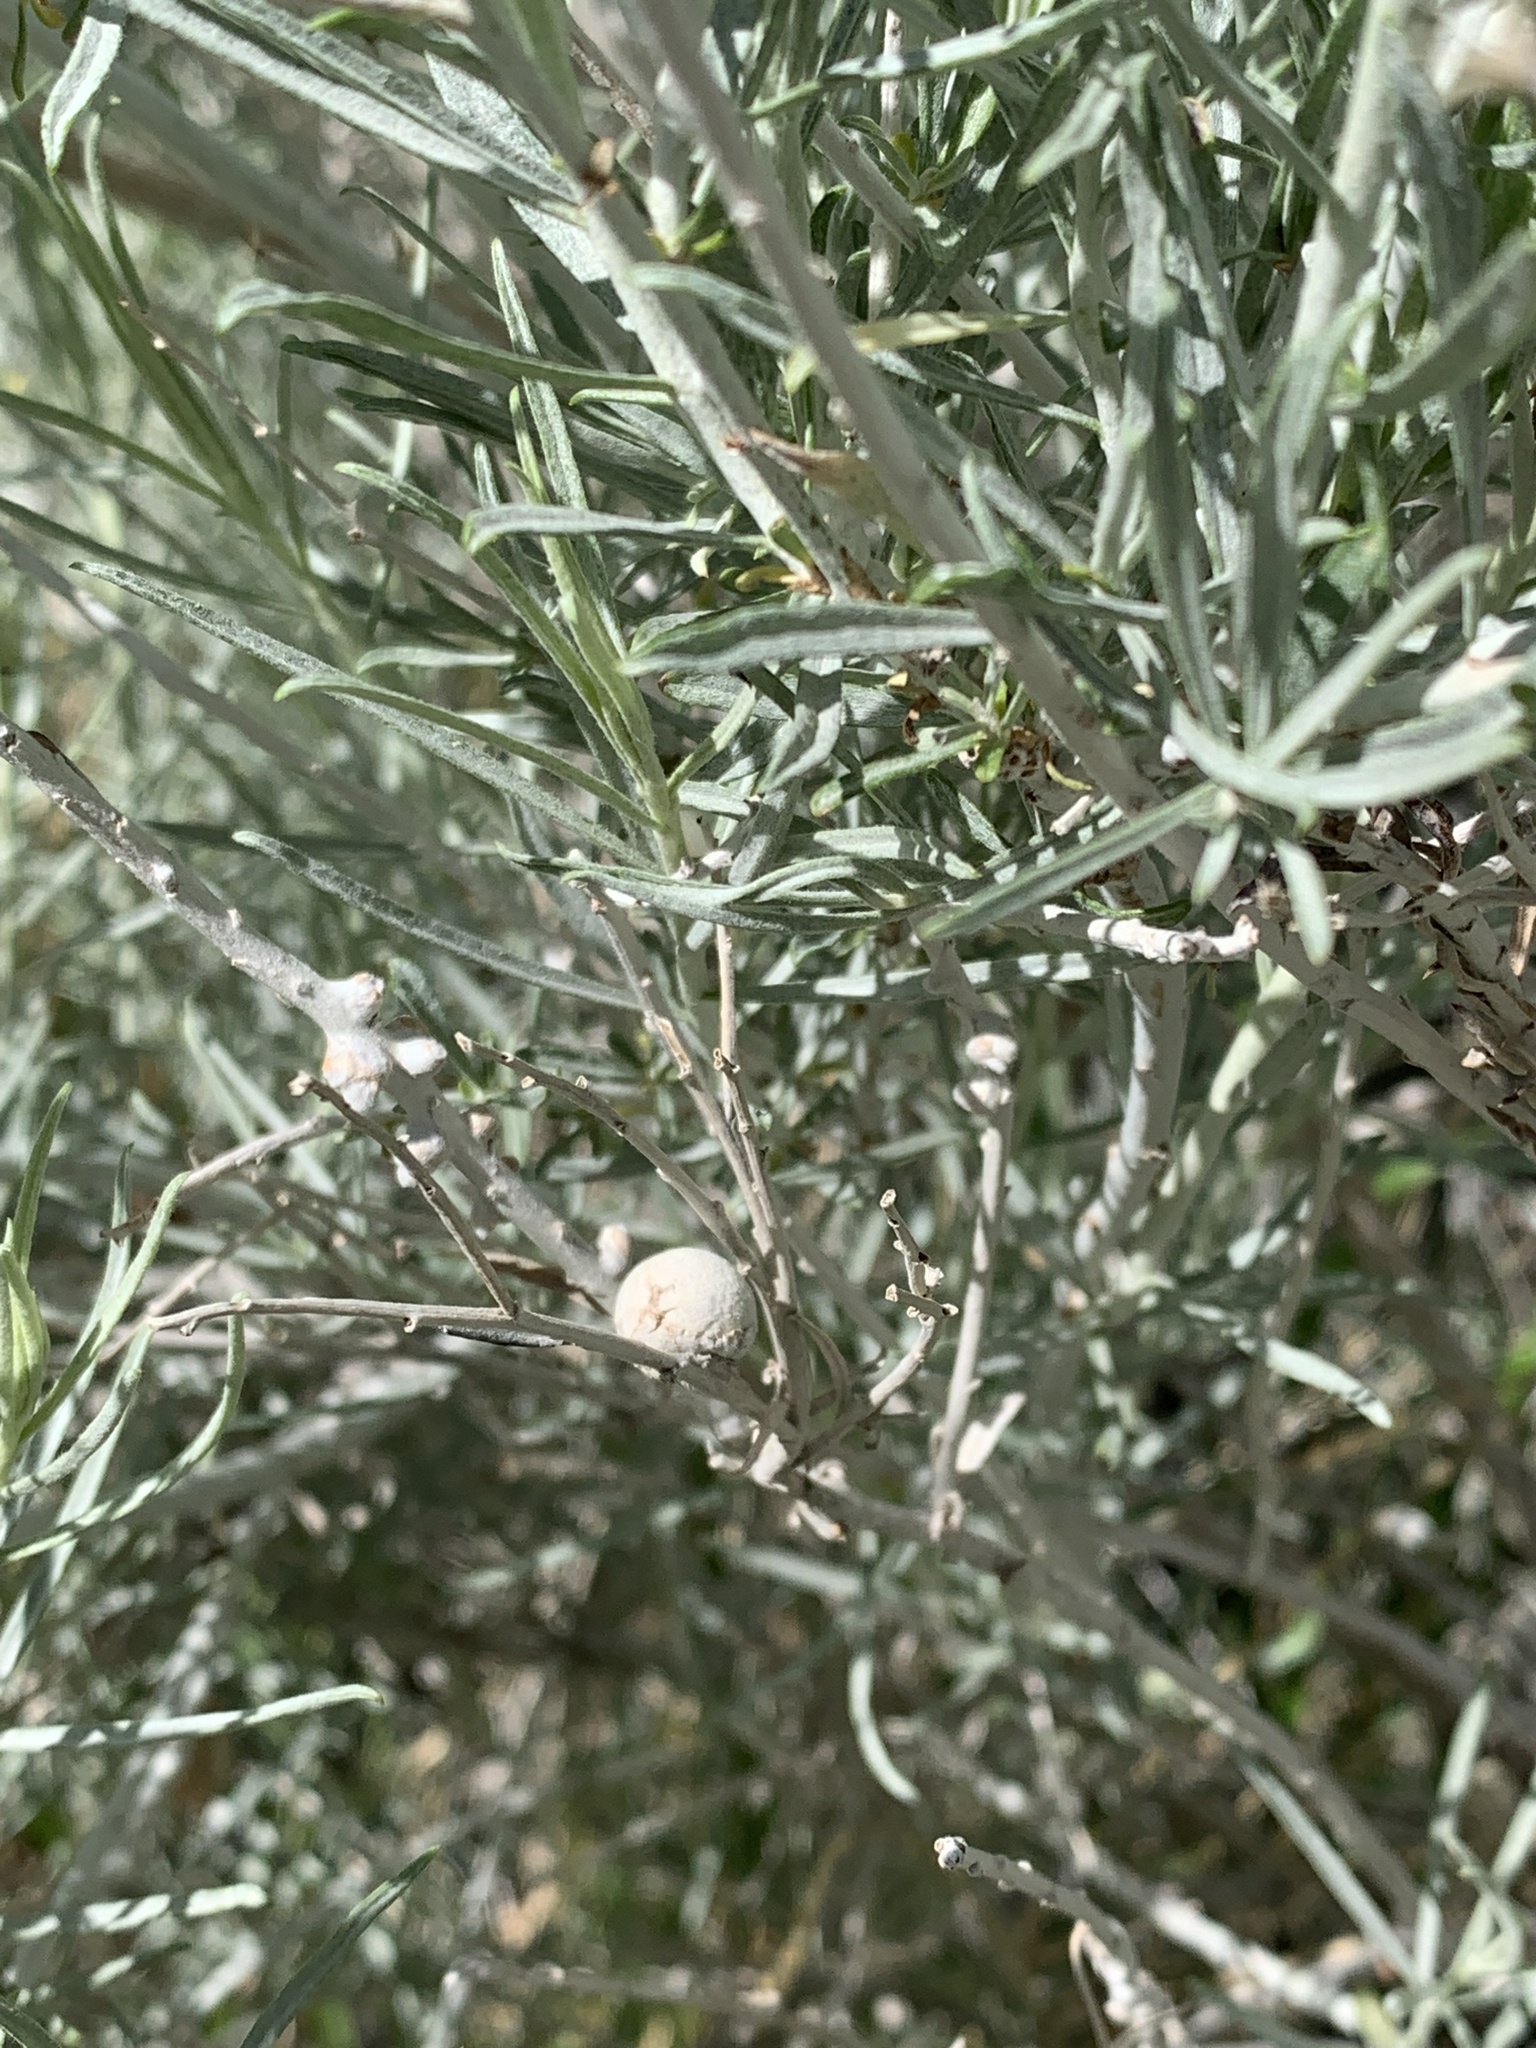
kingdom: Animalia
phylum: Arthropoda
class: Insecta
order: Diptera
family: Cecidomyiidae
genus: Rhopalomyia
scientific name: Rhopalomyia chrysothamni
